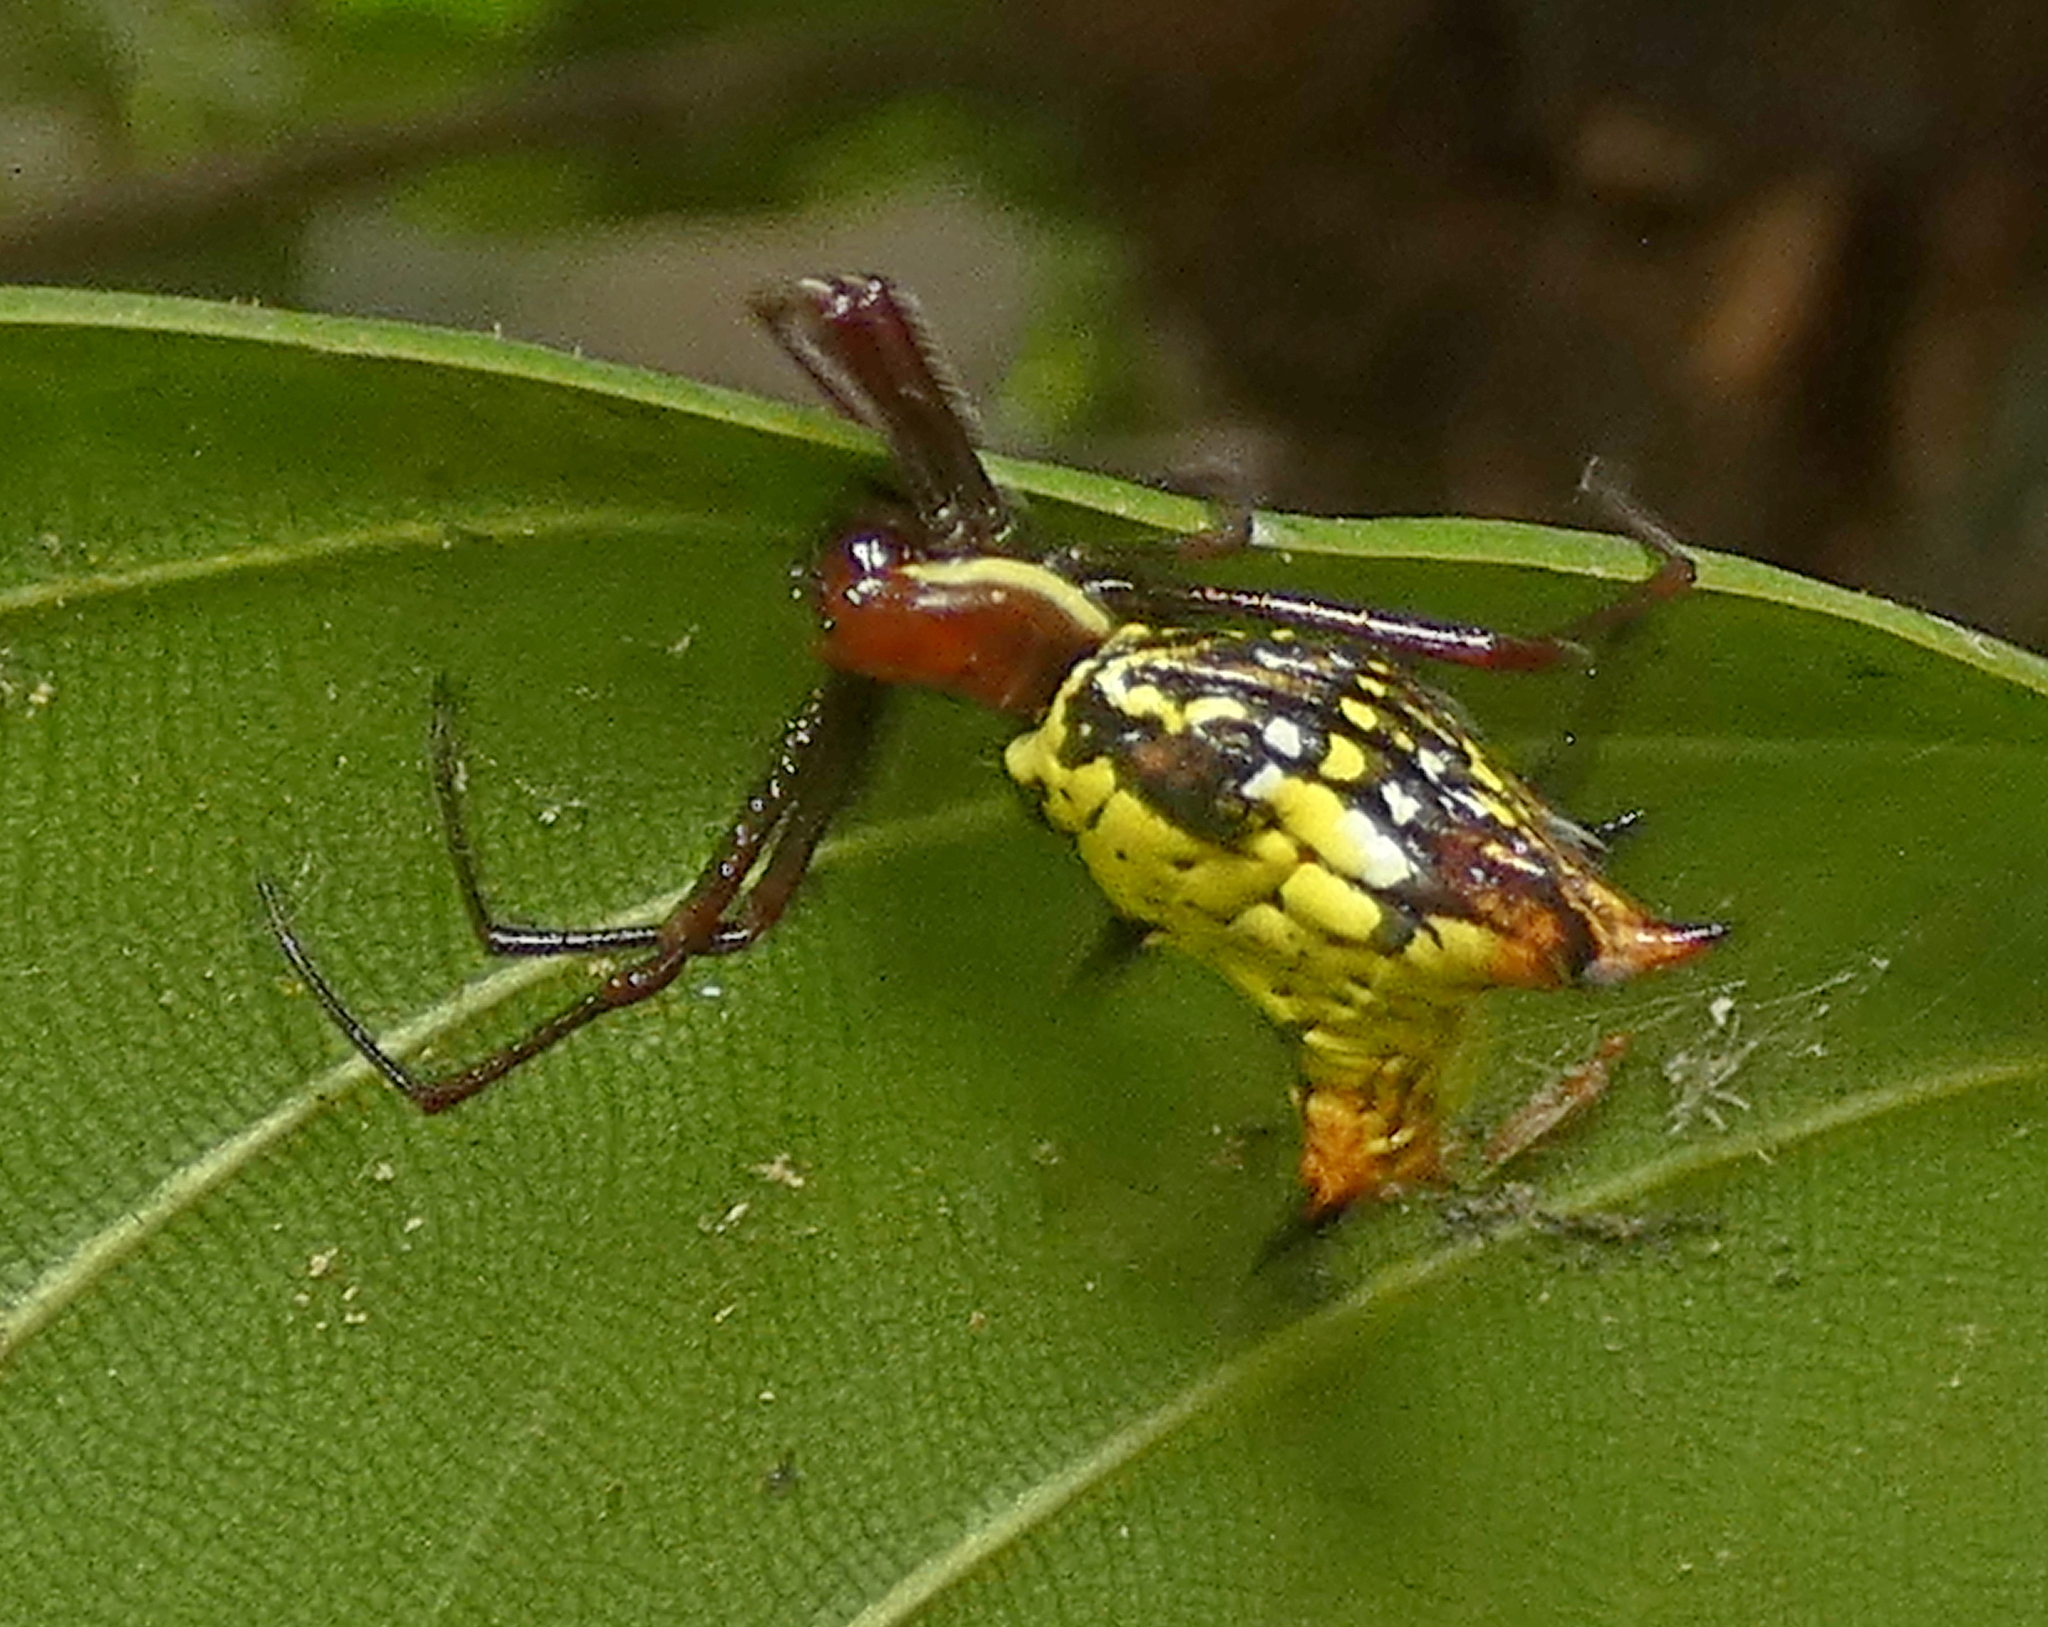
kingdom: Animalia
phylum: Arthropoda
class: Arachnida
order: Araneae
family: Araneidae
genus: Micrathena
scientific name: Micrathena fissispina
